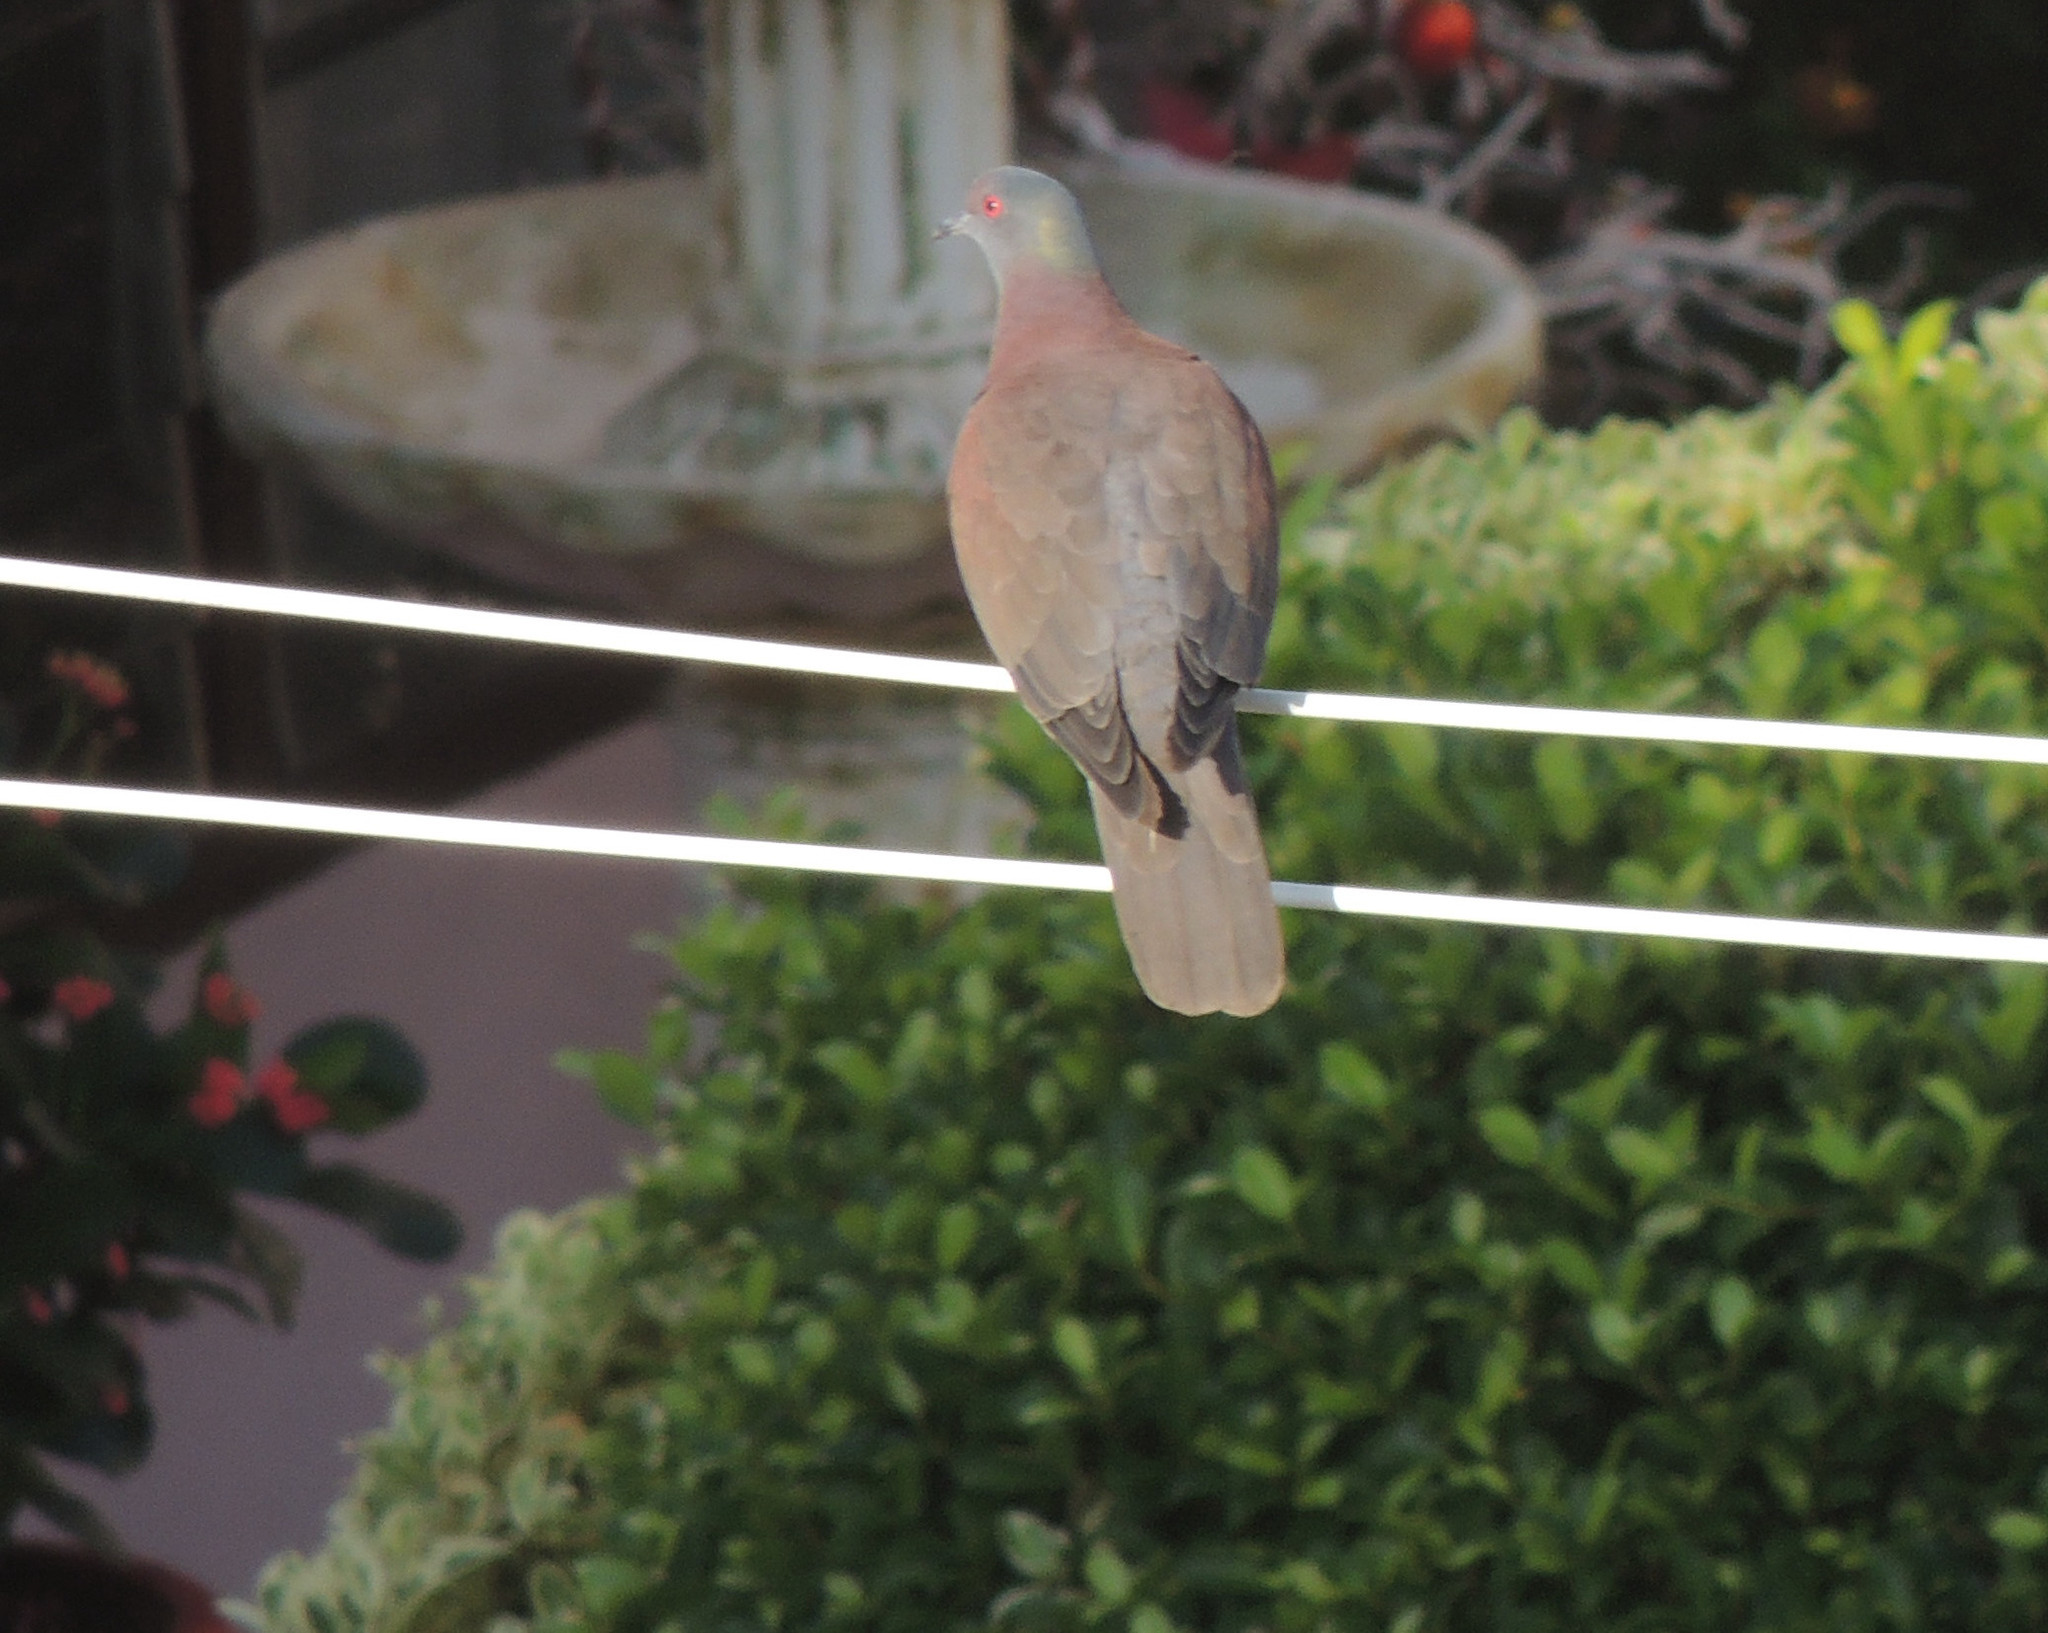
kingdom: Animalia
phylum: Chordata
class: Aves
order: Columbiformes
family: Columbidae
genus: Patagioenas
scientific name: Patagioenas cayennensis
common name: Pale-vented pigeon
